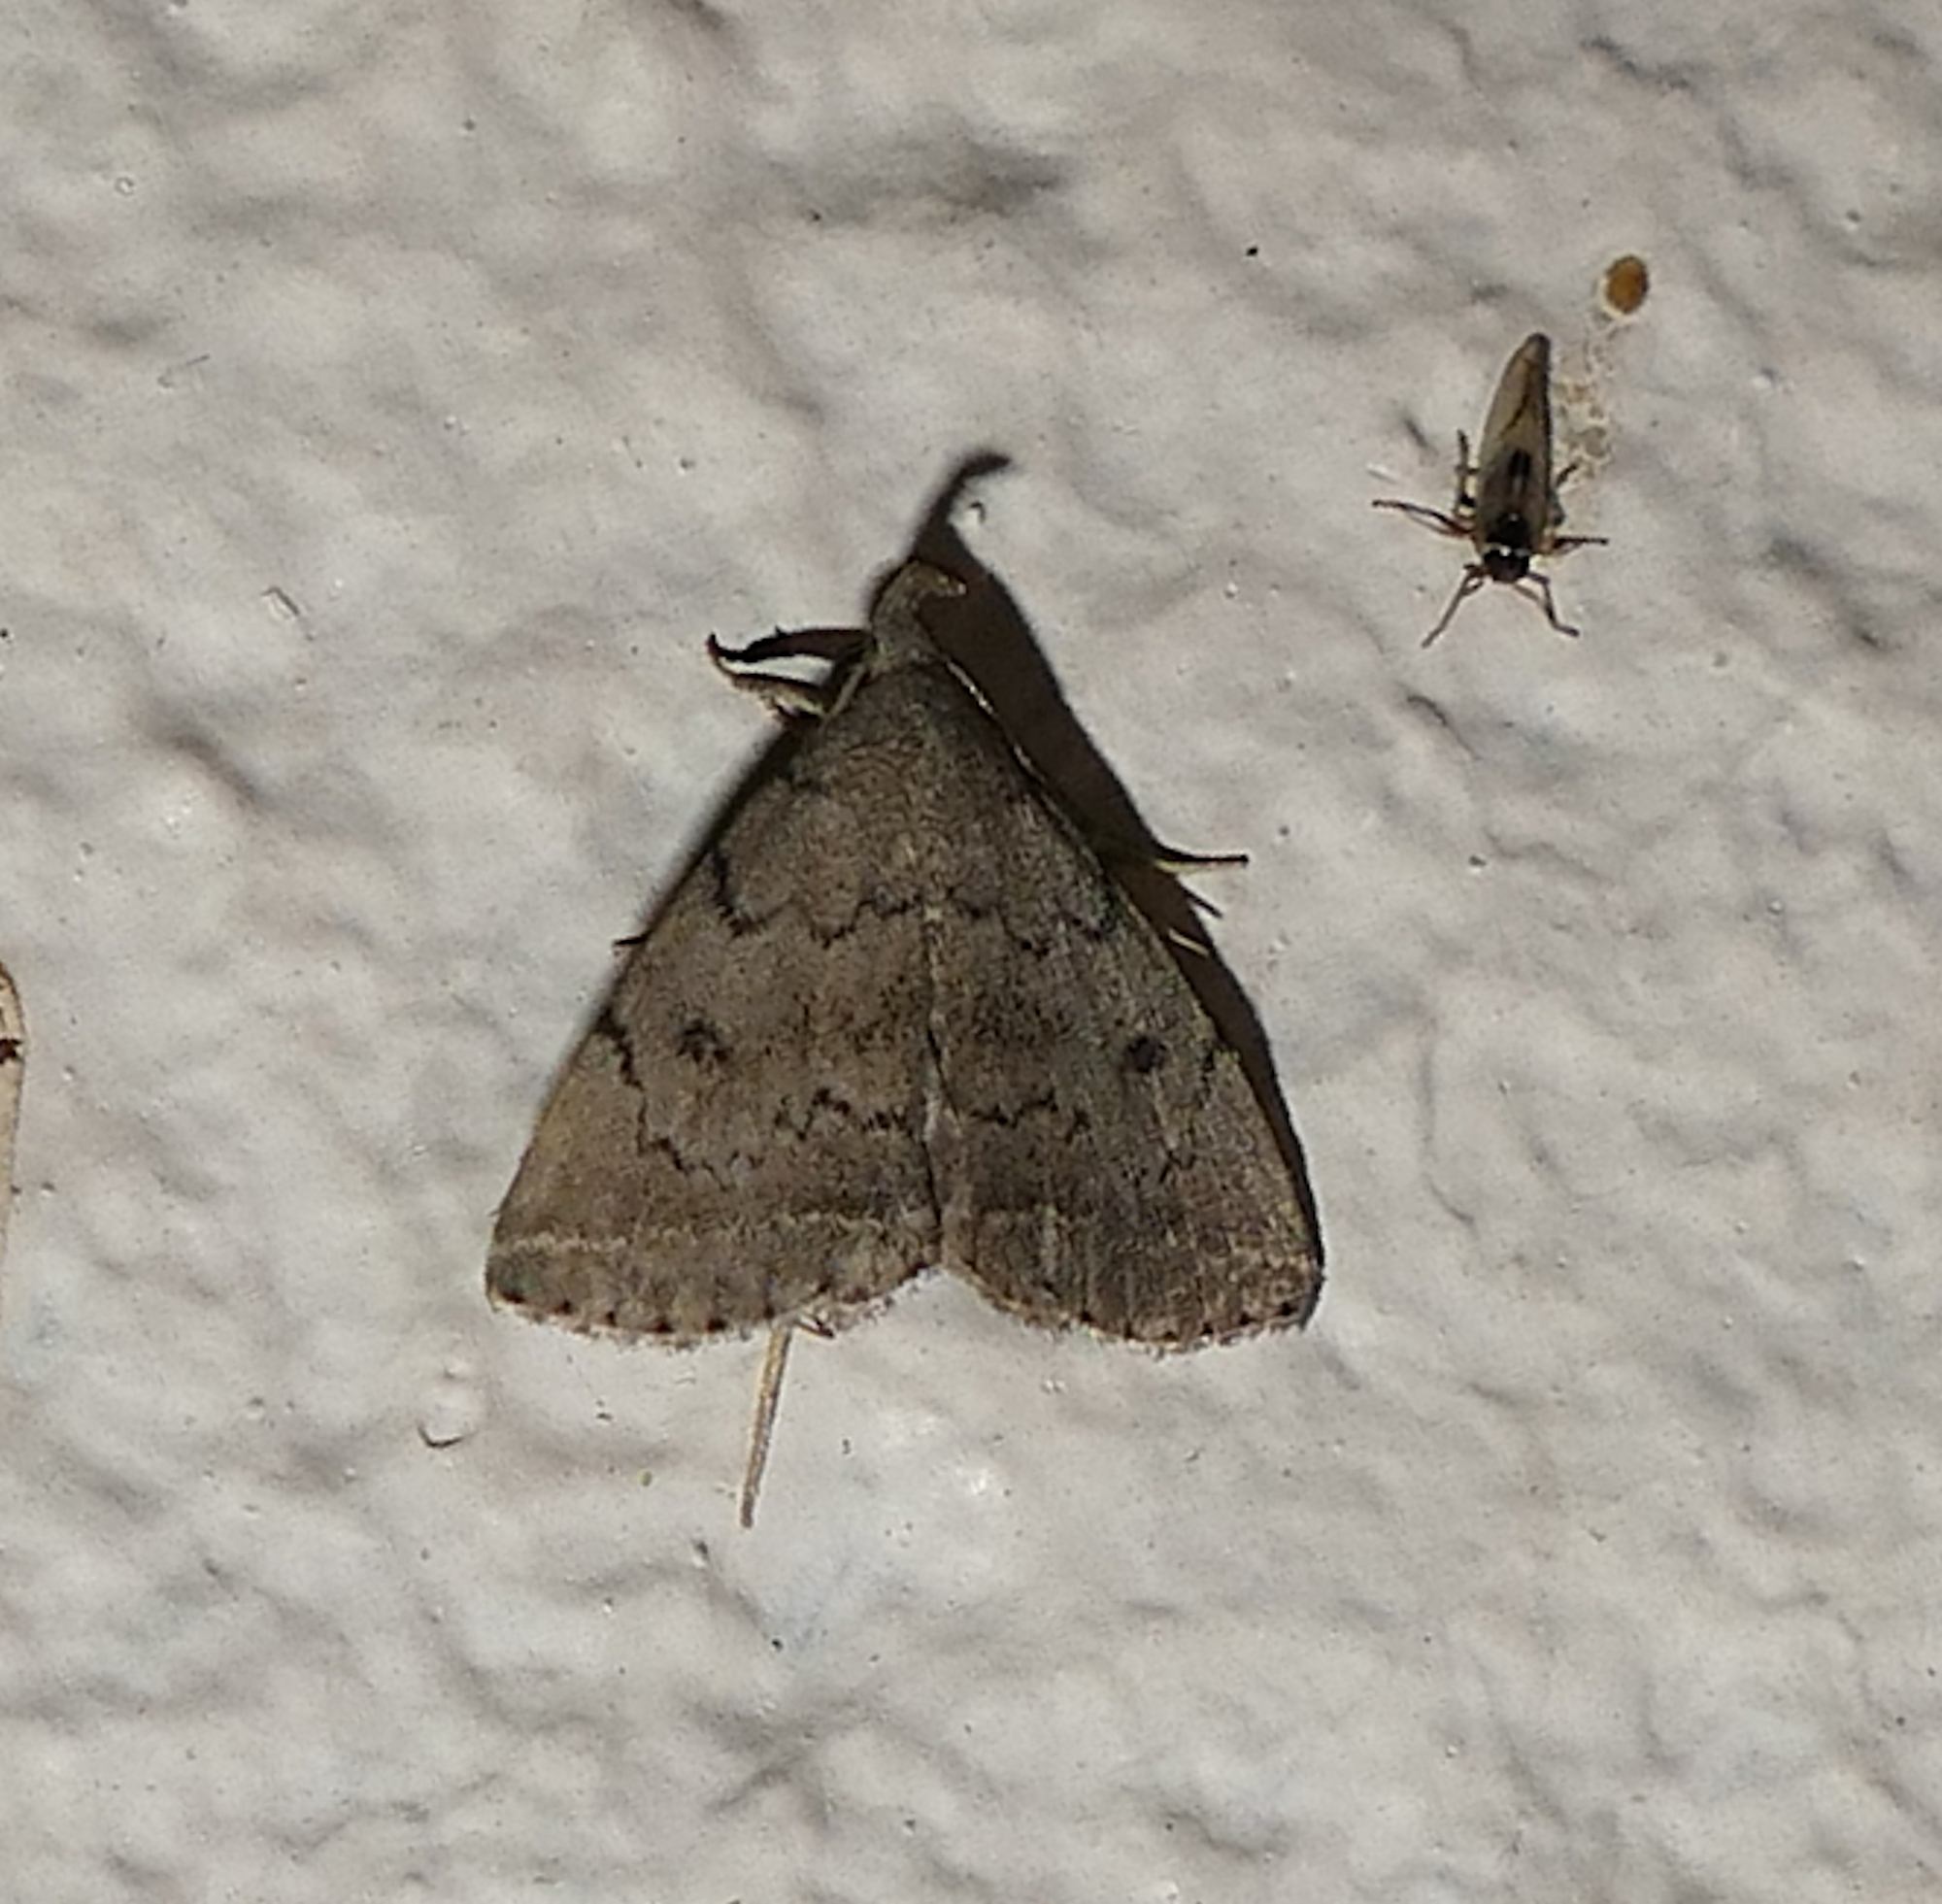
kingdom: Animalia
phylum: Arthropoda
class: Insecta
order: Lepidoptera
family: Erebidae
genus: Zanclognatha
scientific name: Zanclognatha protumnusalis
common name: Complex fan-foot
